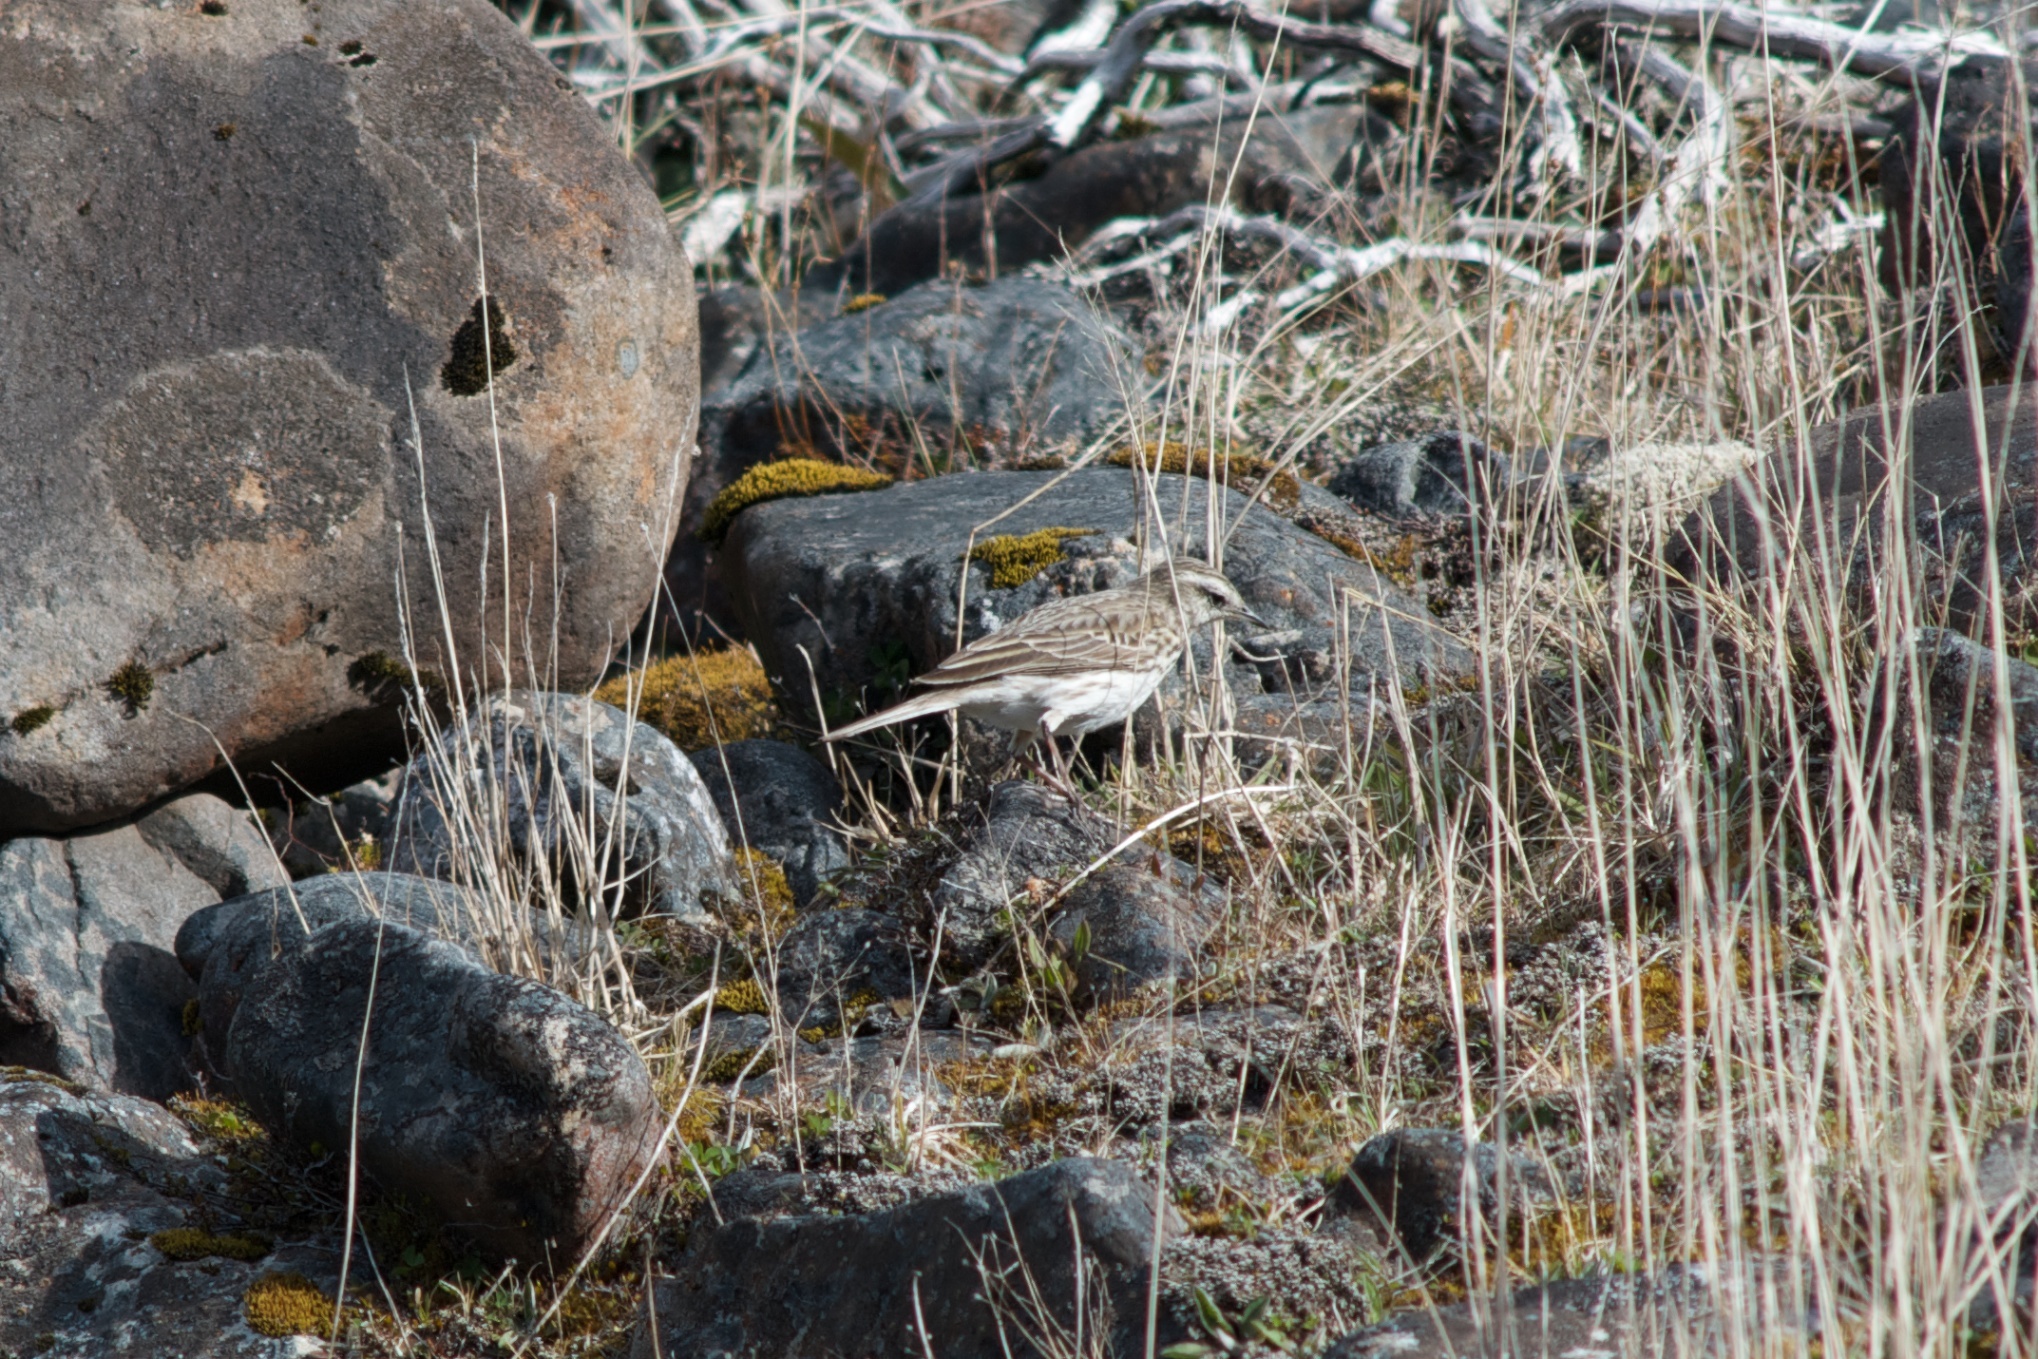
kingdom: Animalia
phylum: Chordata
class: Aves
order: Passeriformes
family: Motacillidae
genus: Anthus
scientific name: Anthus novaeseelandiae
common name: New zealand pipit
